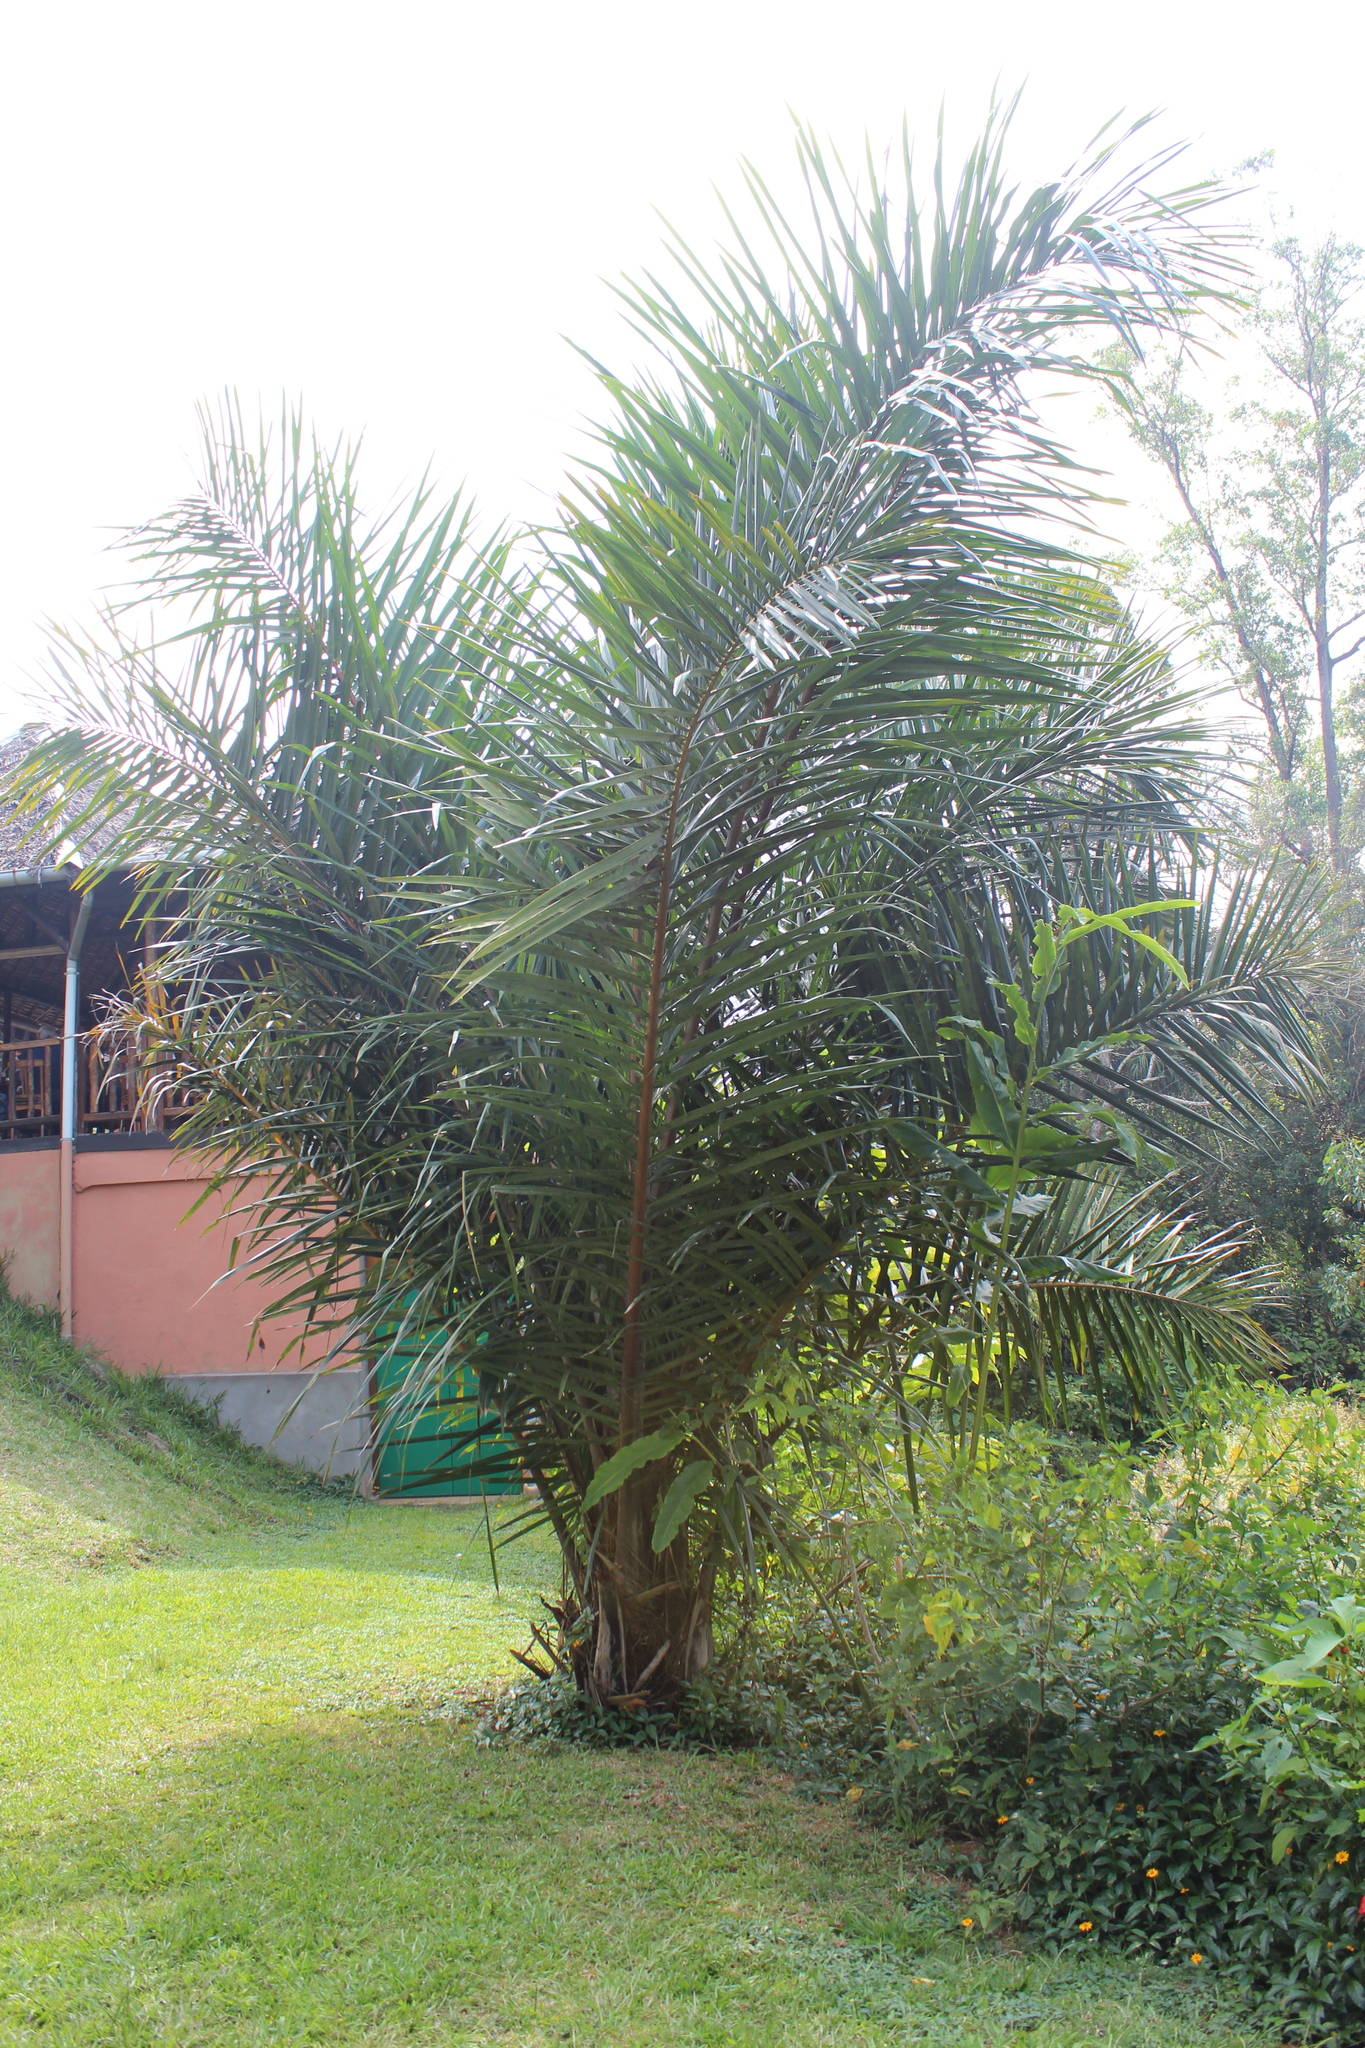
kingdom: Plantae
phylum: Tracheophyta
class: Liliopsida
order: Arecales
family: Arecaceae
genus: Raphia
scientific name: Raphia farinifera
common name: Raphia palm
